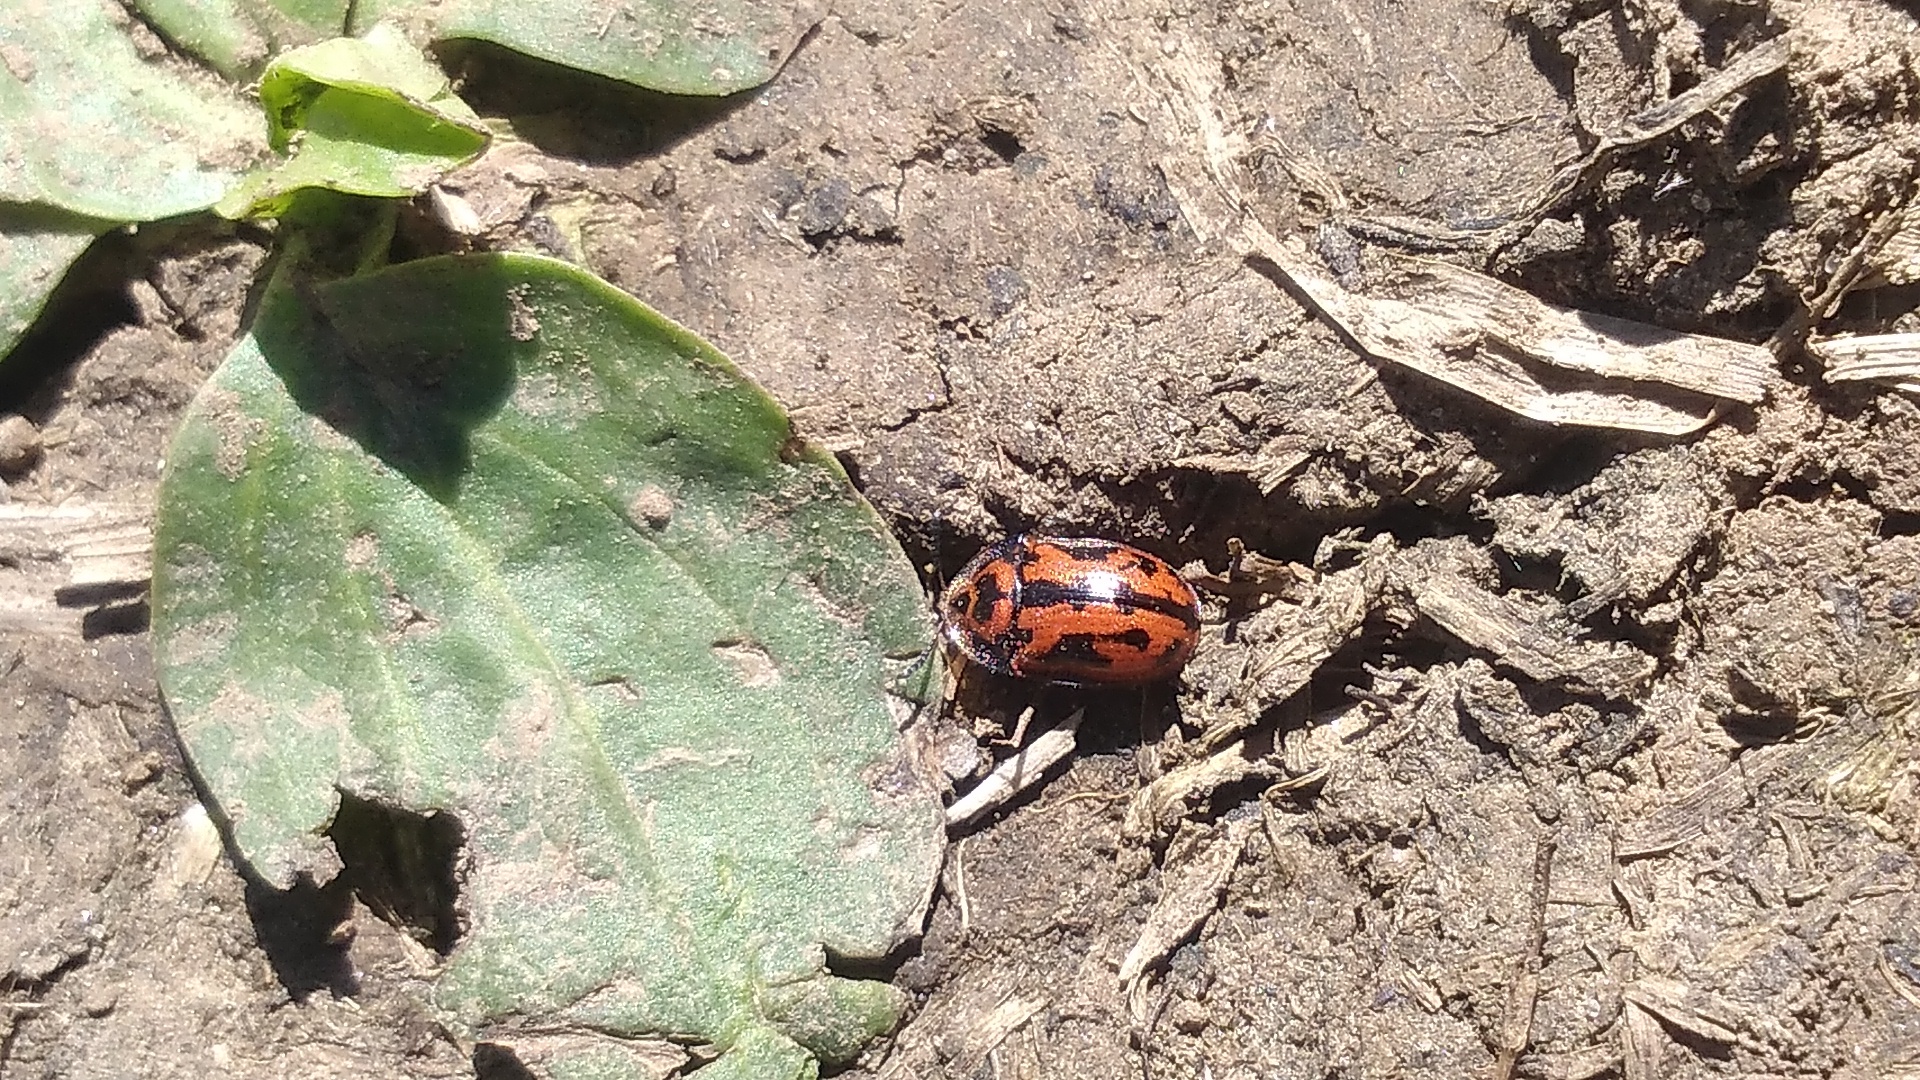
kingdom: Animalia
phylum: Arthropoda
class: Insecta
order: Coleoptera
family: Chrysomelidae
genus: Pilemostoma
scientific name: Pilemostoma fastuosa
